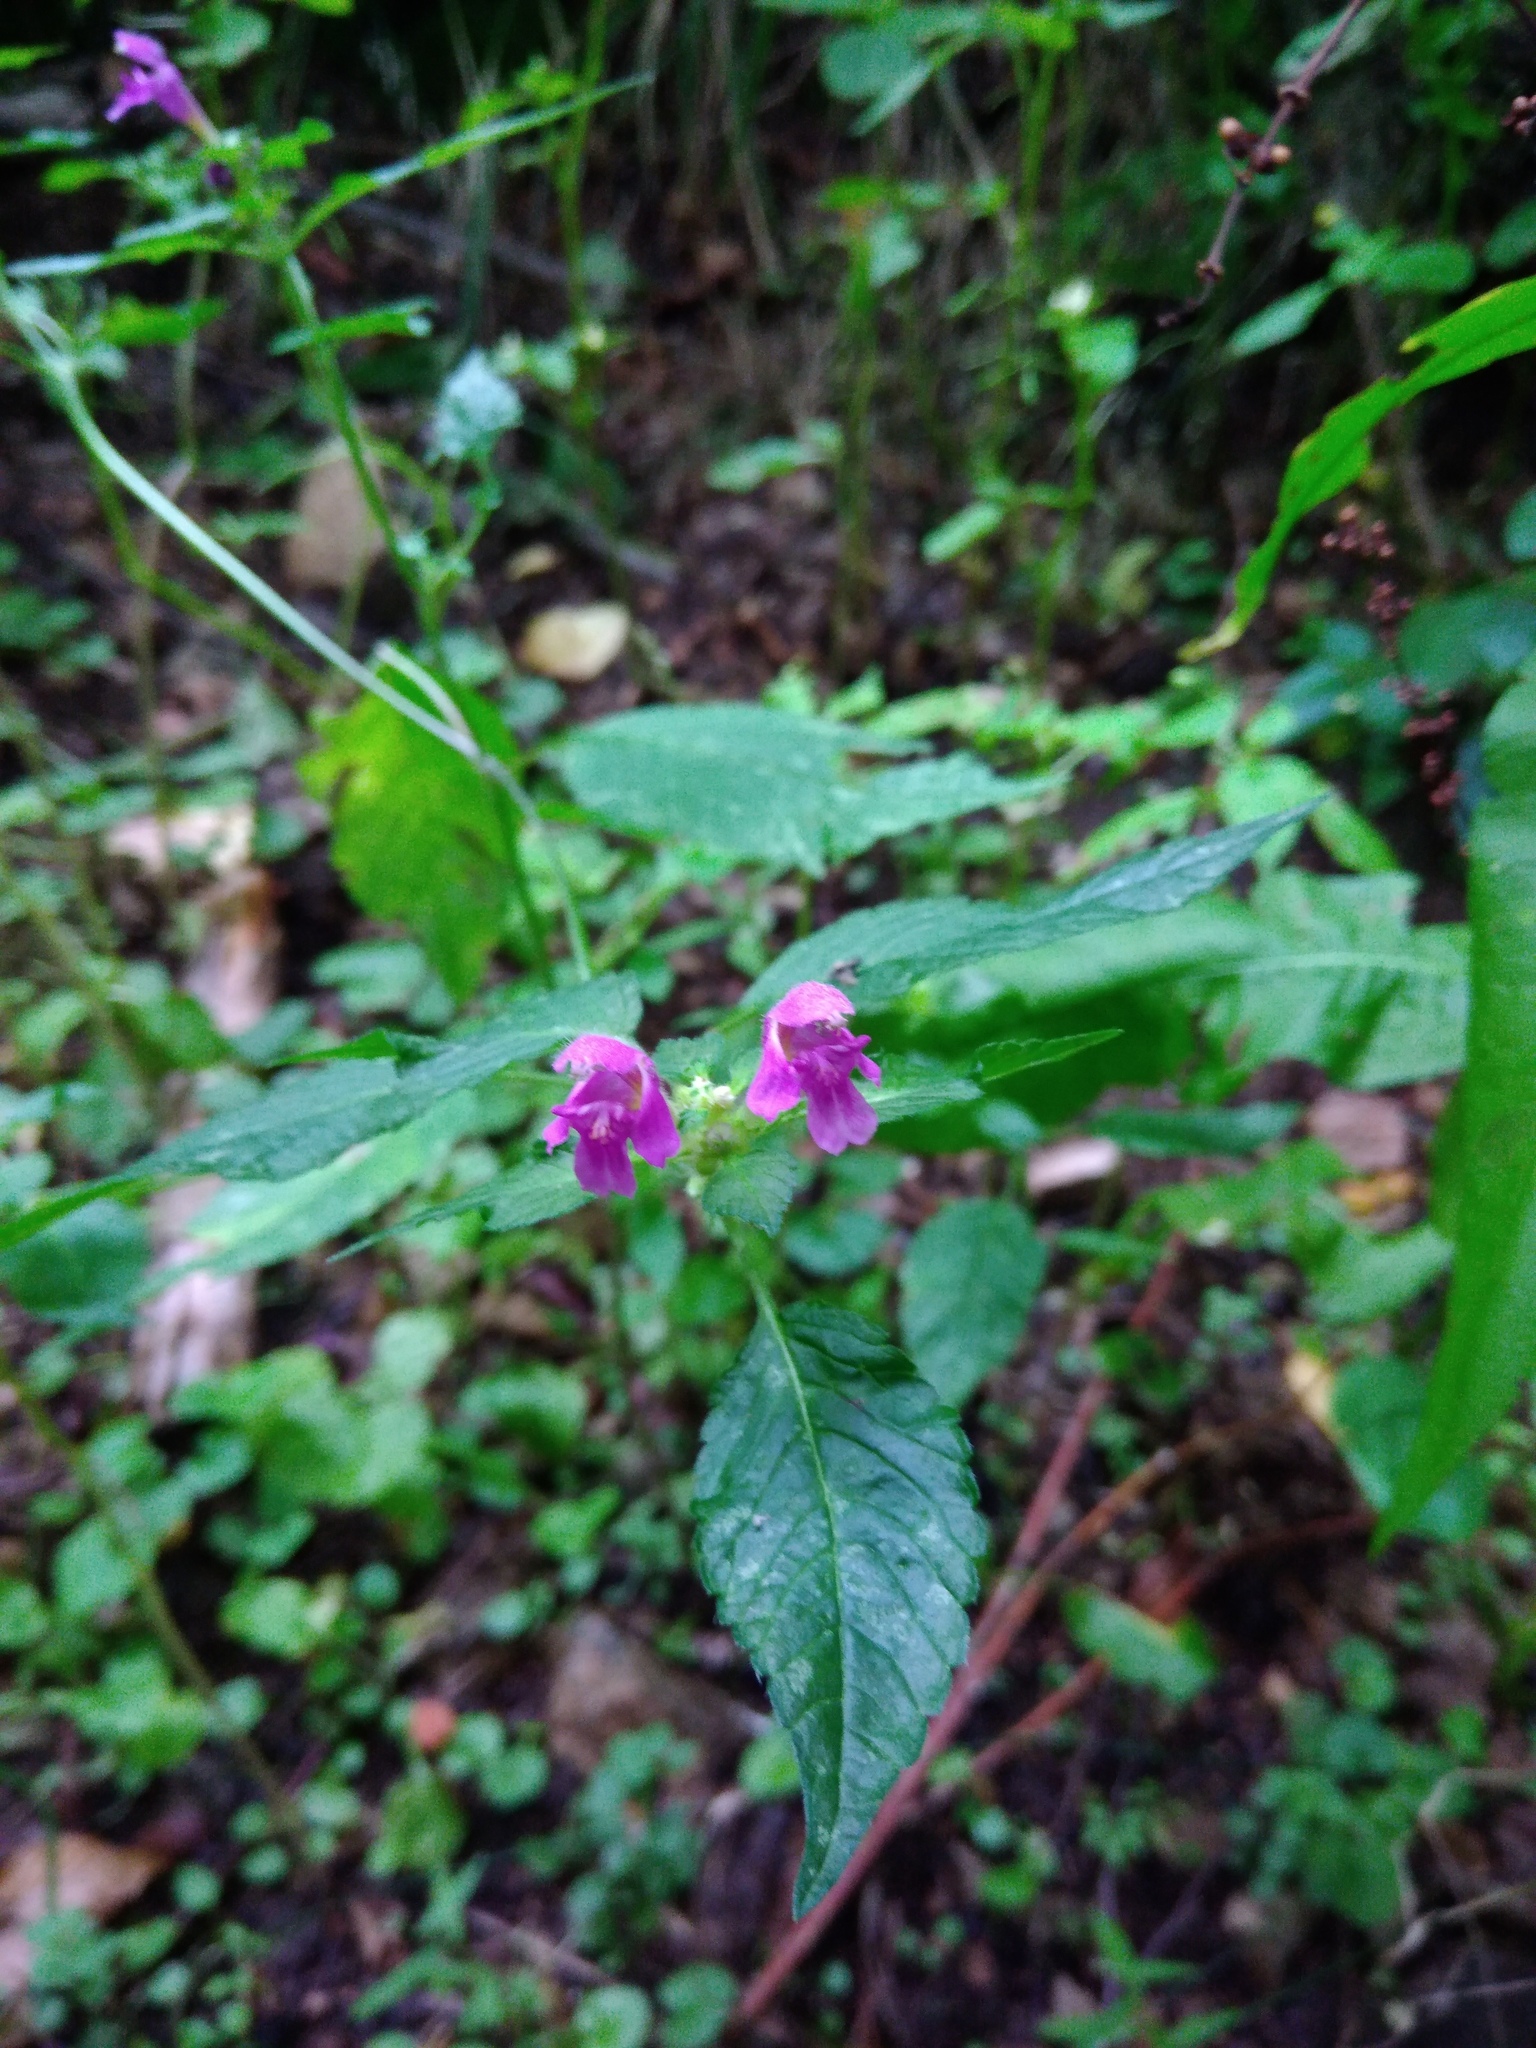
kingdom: Plantae
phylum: Tracheophyta
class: Magnoliopsida
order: Lamiales
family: Lamiaceae
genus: Galeopsis
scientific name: Galeopsis pubescens
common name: Downy hemp-nettle
